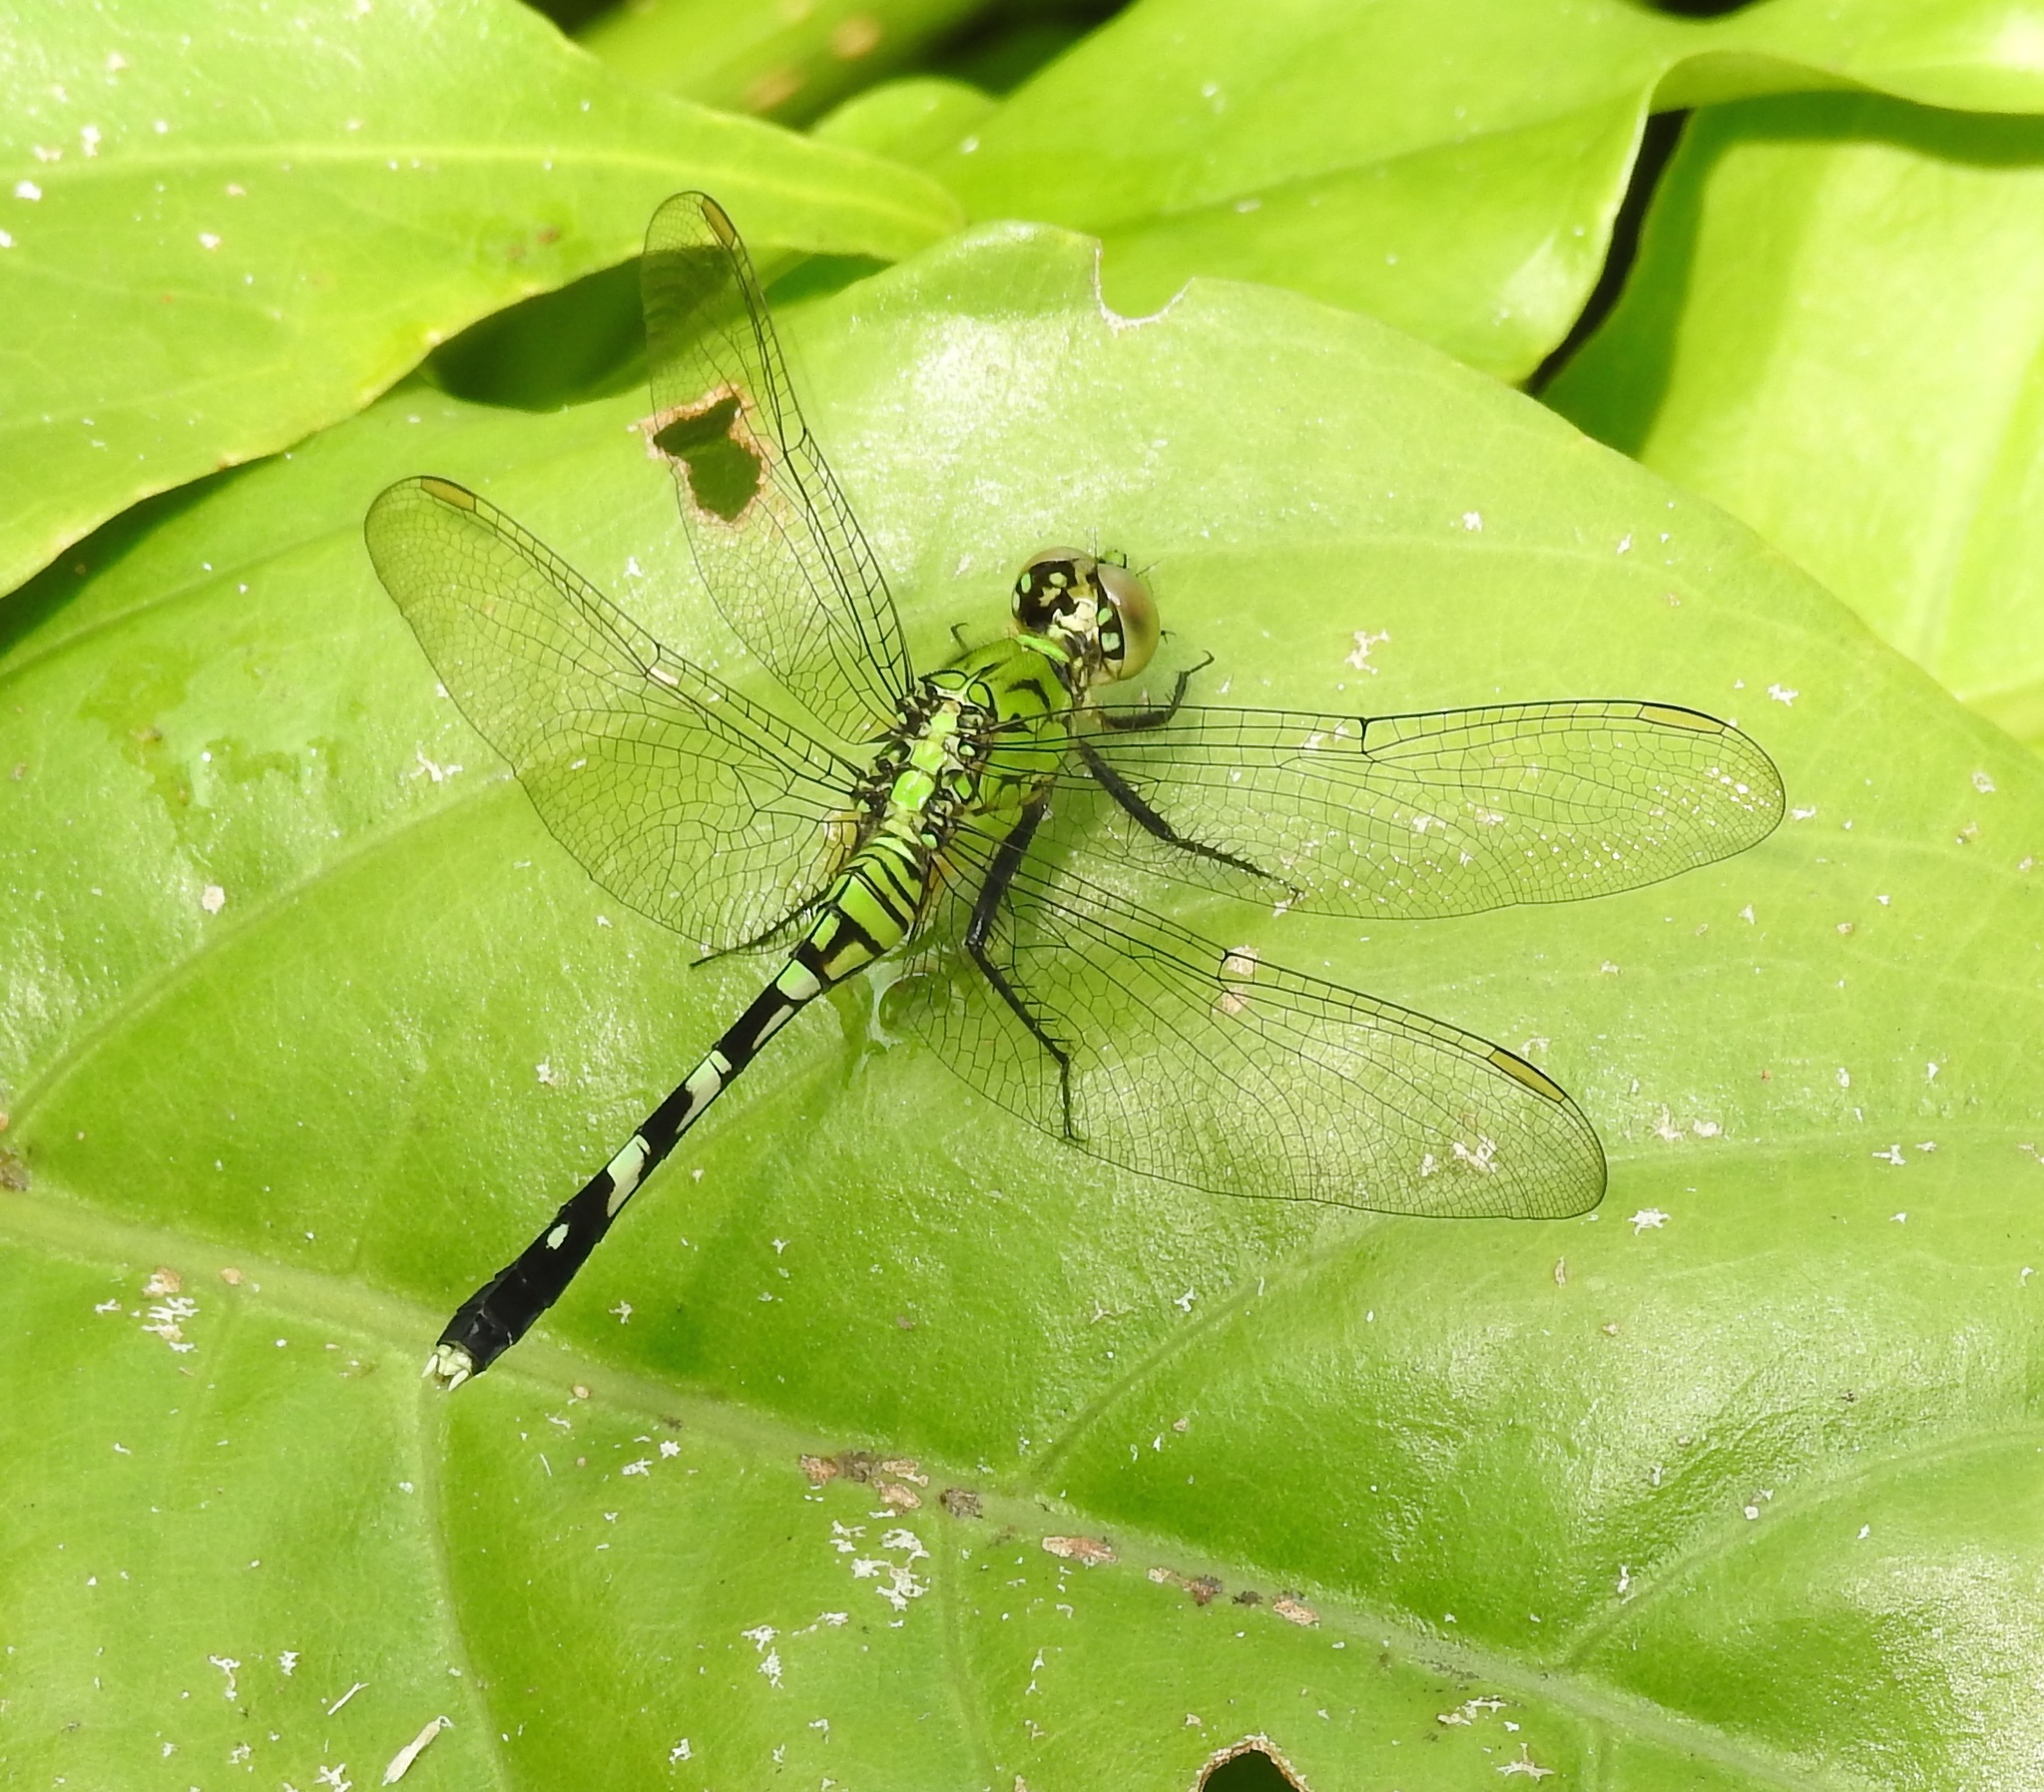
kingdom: Animalia
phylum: Arthropoda
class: Insecta
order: Odonata
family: Libellulidae
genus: Erythemis
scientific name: Erythemis simplicicollis
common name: Eastern pondhawk
